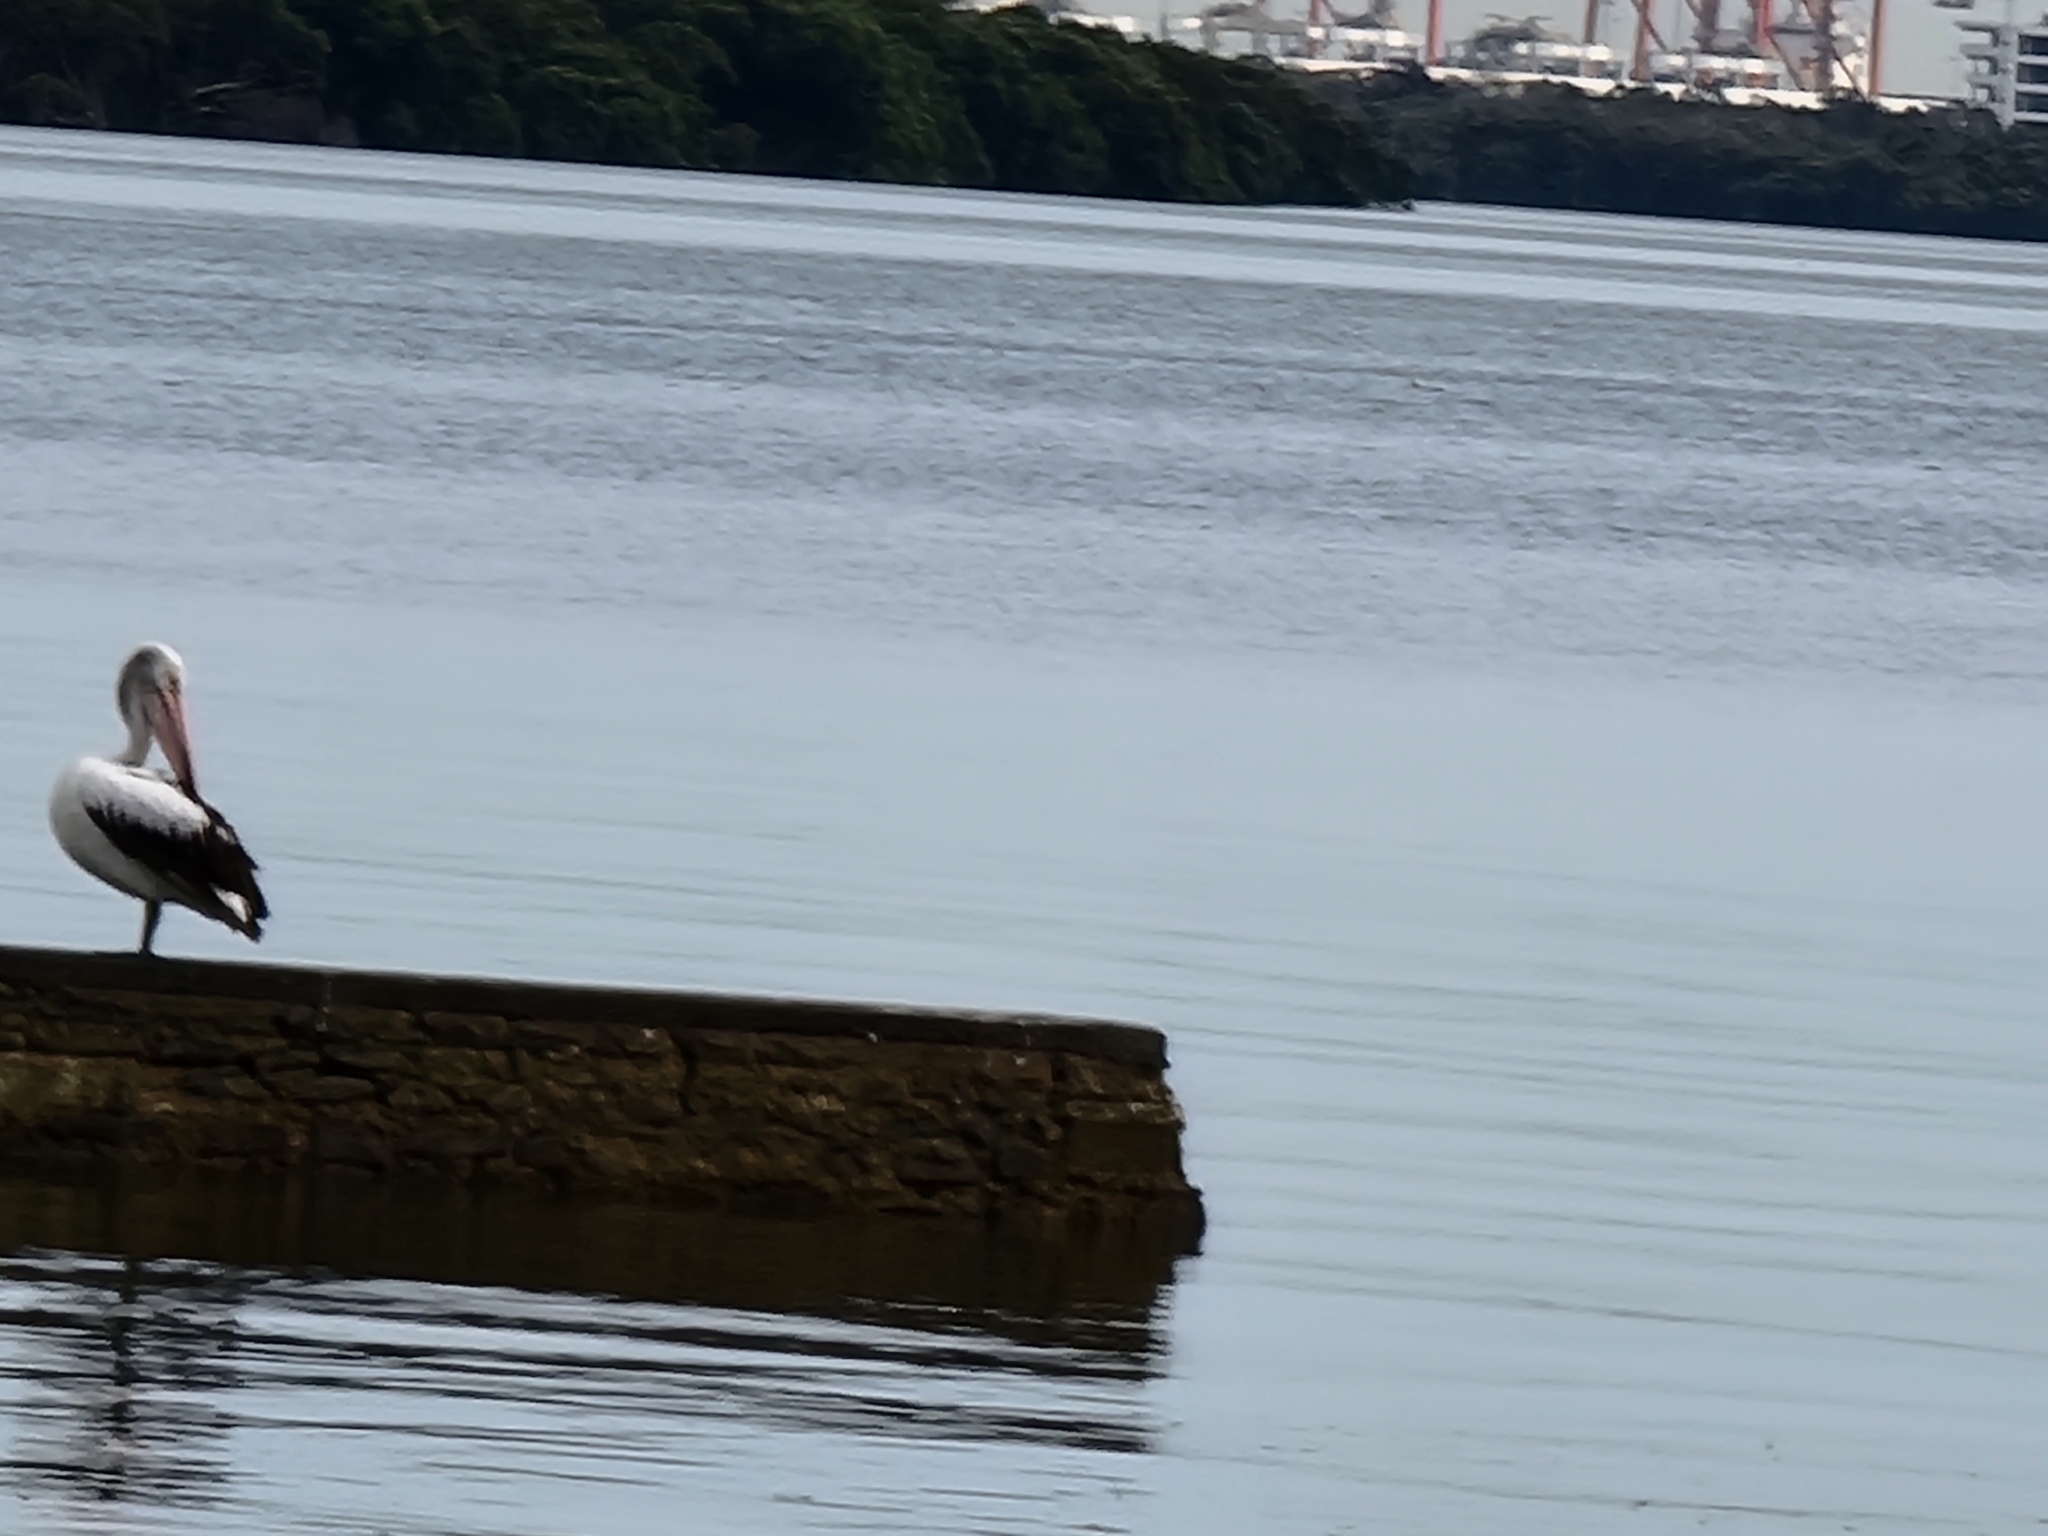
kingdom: Animalia
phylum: Chordata
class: Aves
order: Pelecaniformes
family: Pelecanidae
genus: Pelecanus
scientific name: Pelecanus conspicillatus
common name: Australian pelican
